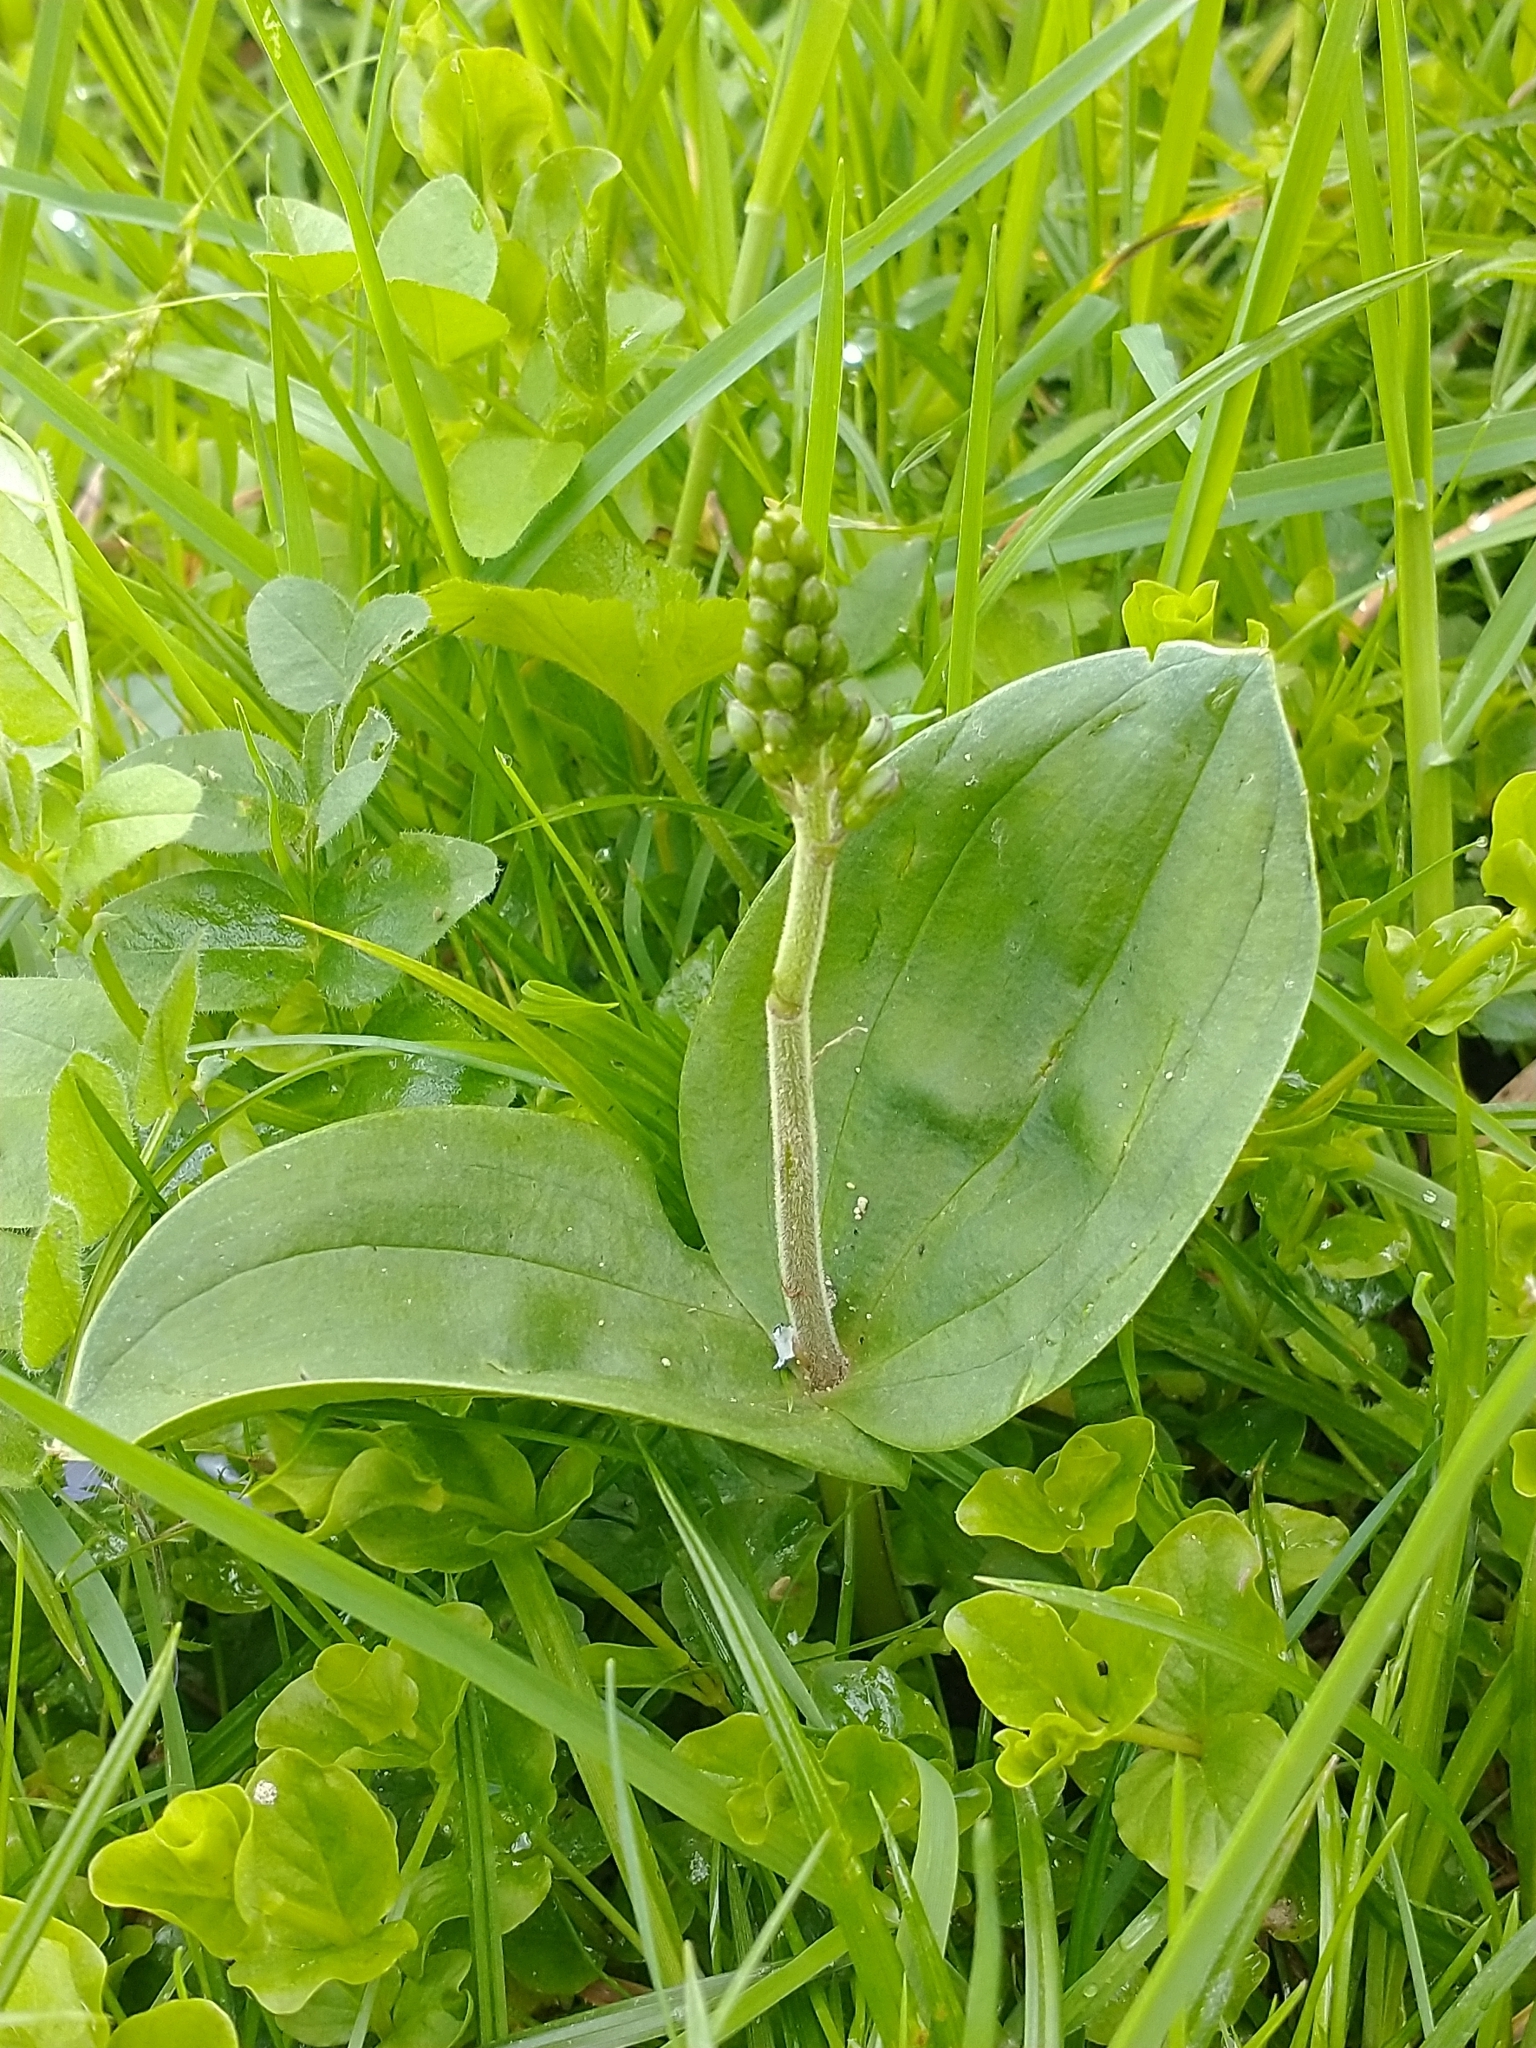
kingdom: Plantae
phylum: Tracheophyta
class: Liliopsida
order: Asparagales
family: Orchidaceae
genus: Neottia
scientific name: Neottia ovata
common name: Common twayblade
